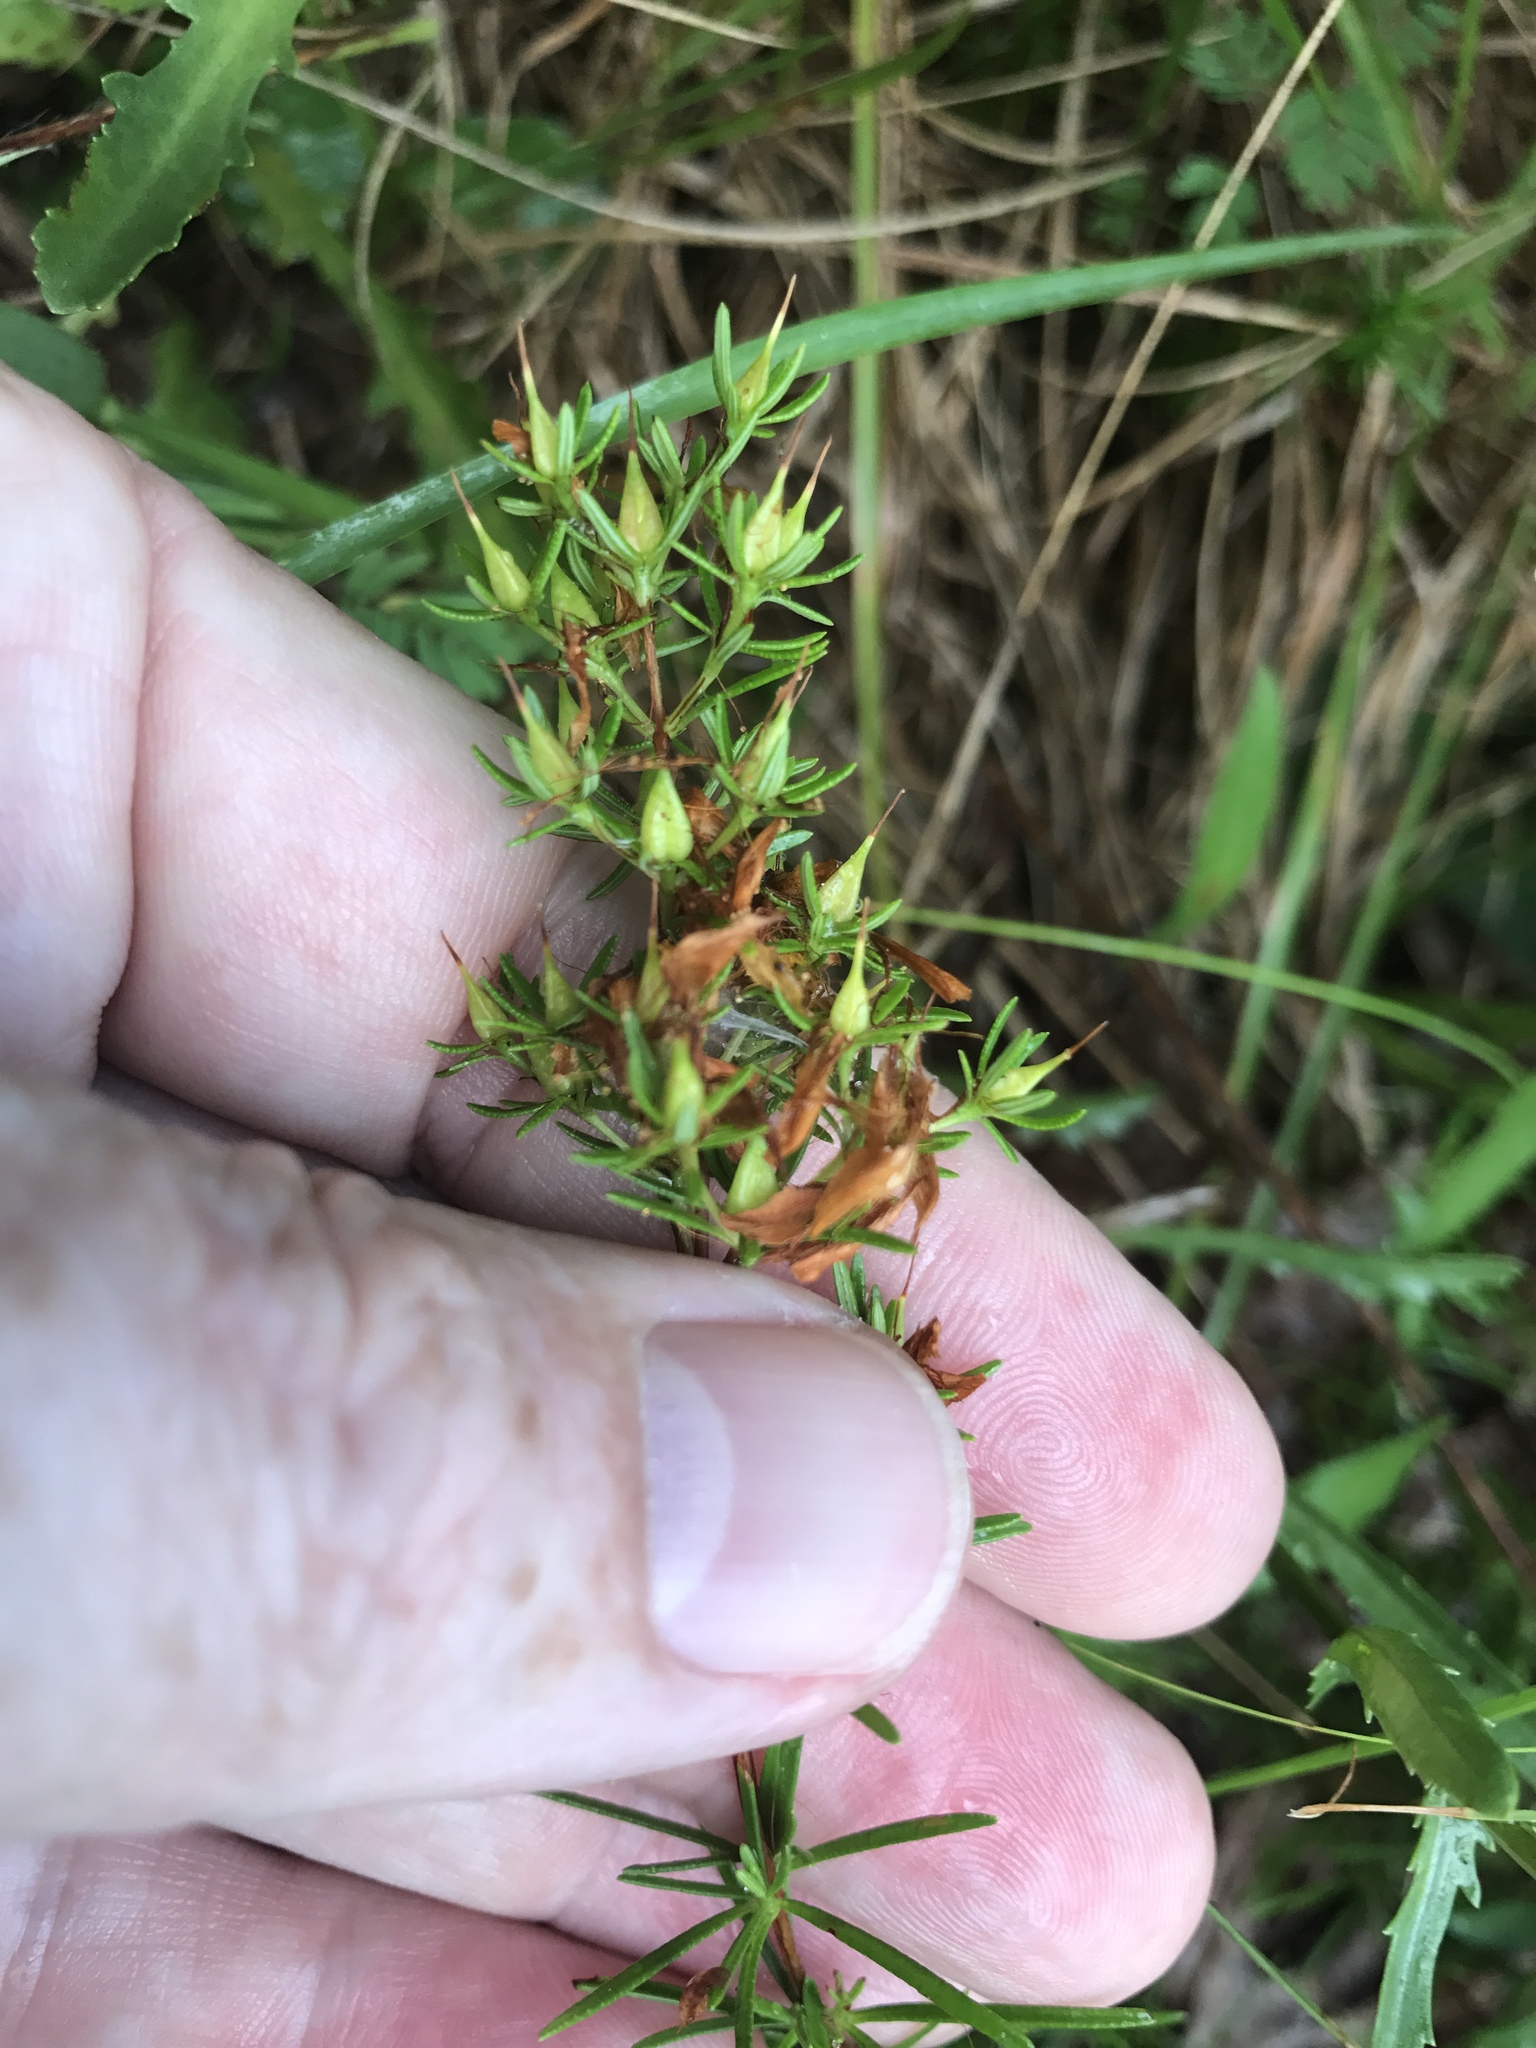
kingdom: Plantae
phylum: Tracheophyta
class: Magnoliopsida
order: Malpighiales
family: Hypericaceae
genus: Hypericum
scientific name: Hypericum lloydii
